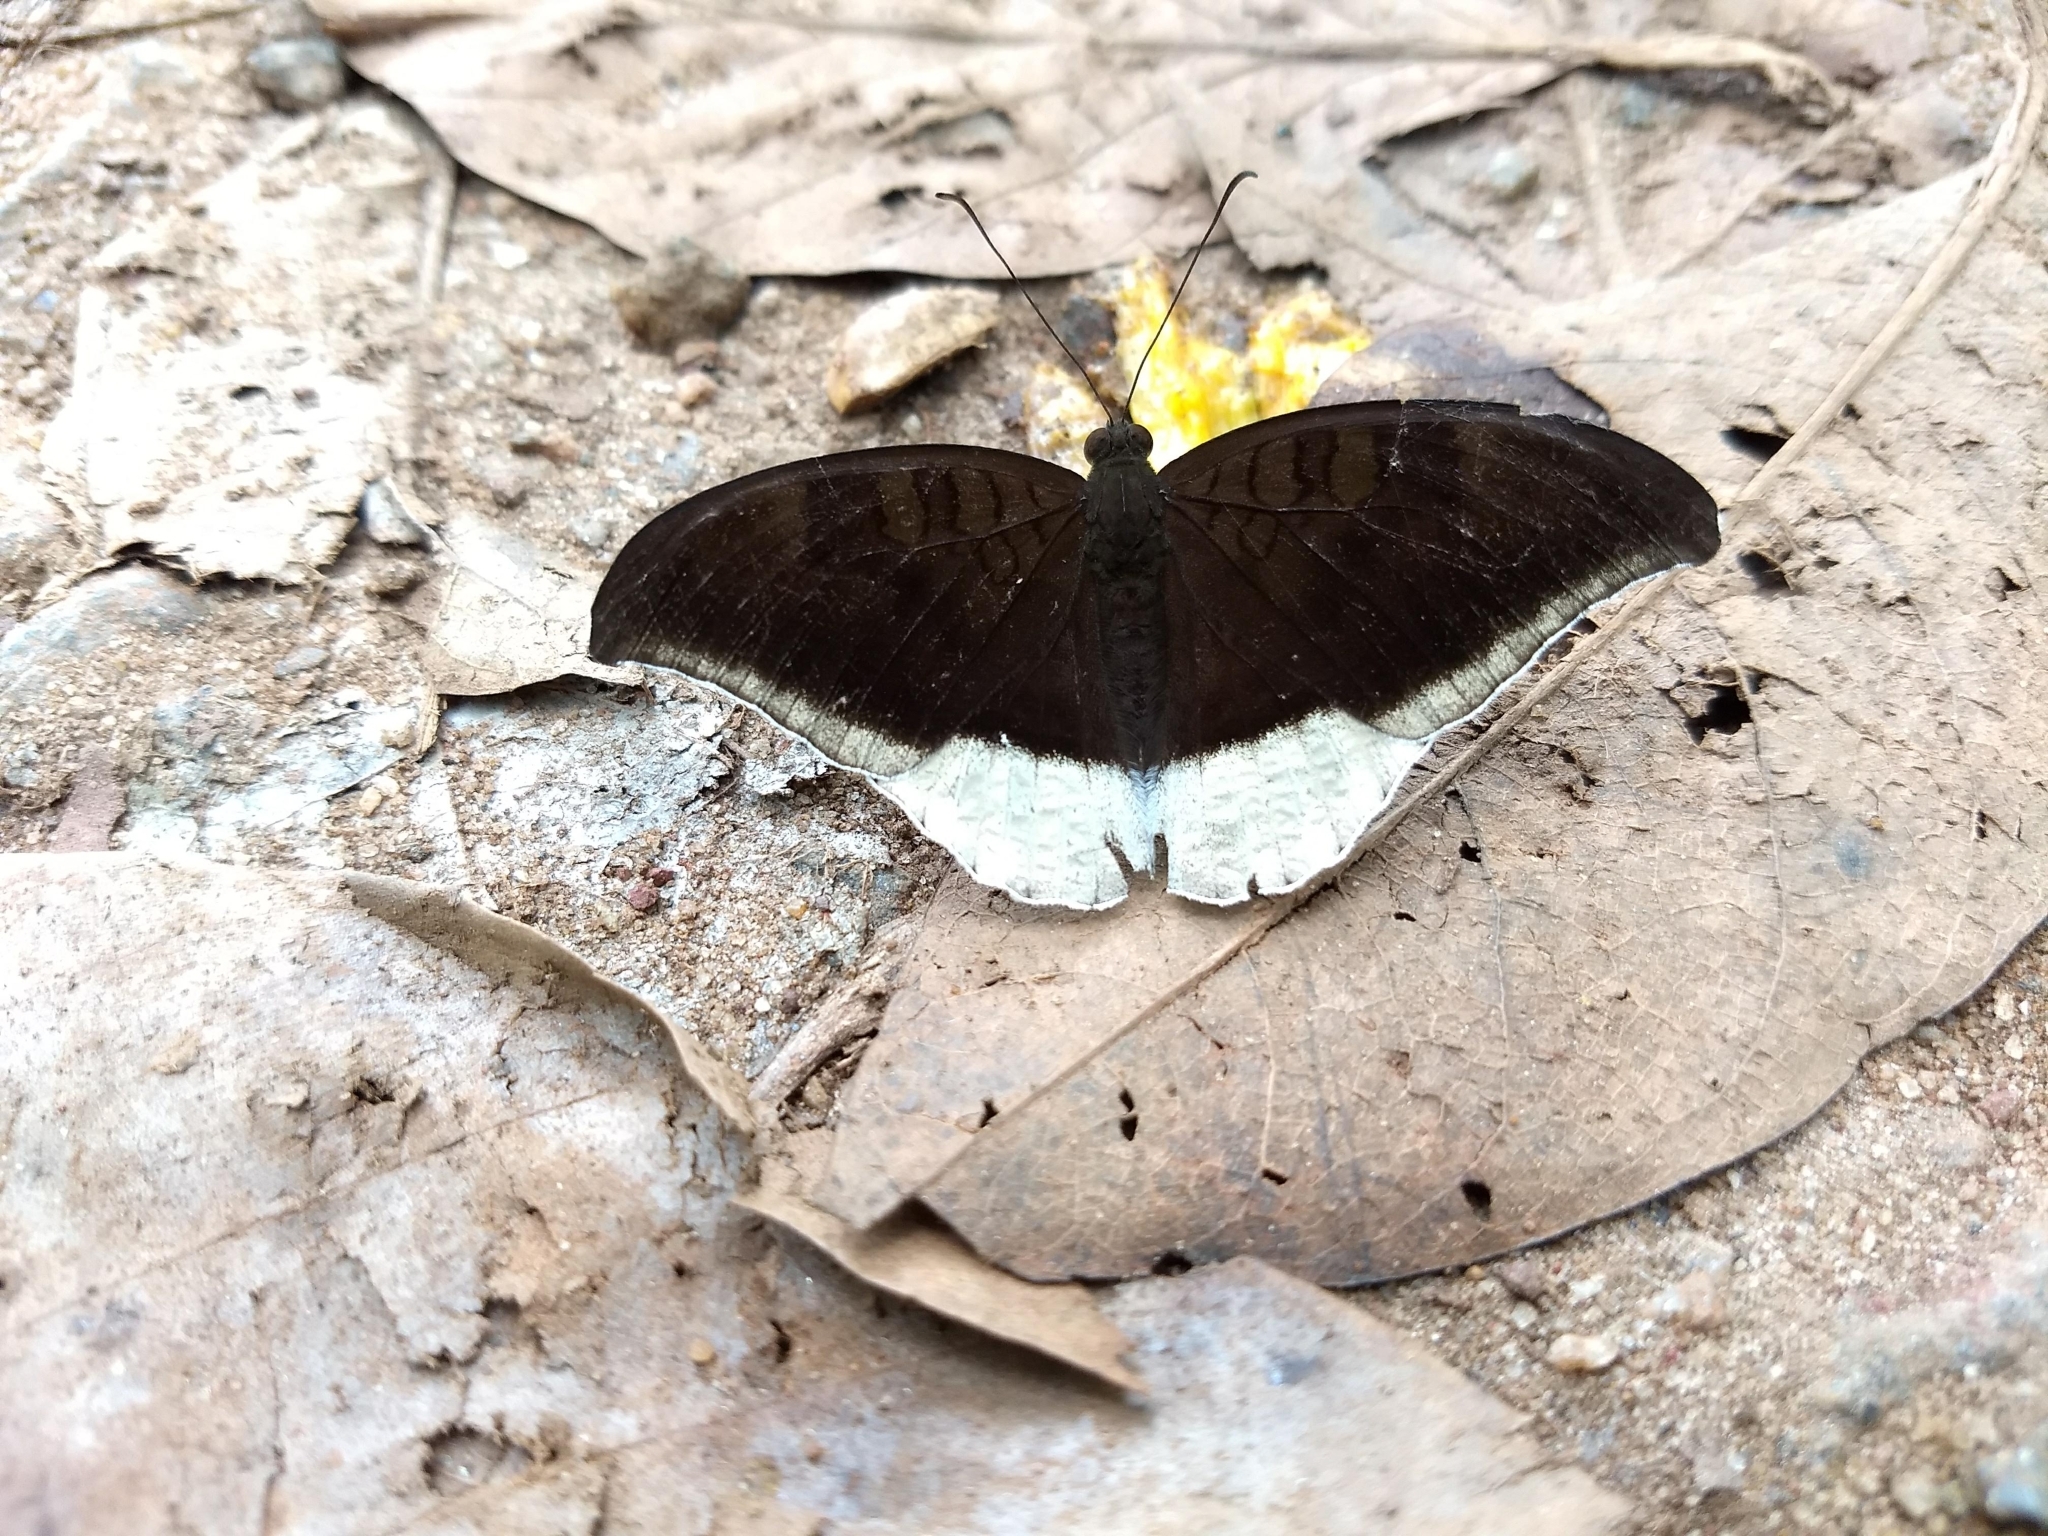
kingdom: Animalia
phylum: Arthropoda
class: Insecta
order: Lepidoptera
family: Nymphalidae
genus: Tanaecia
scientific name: Tanaecia lepidea
